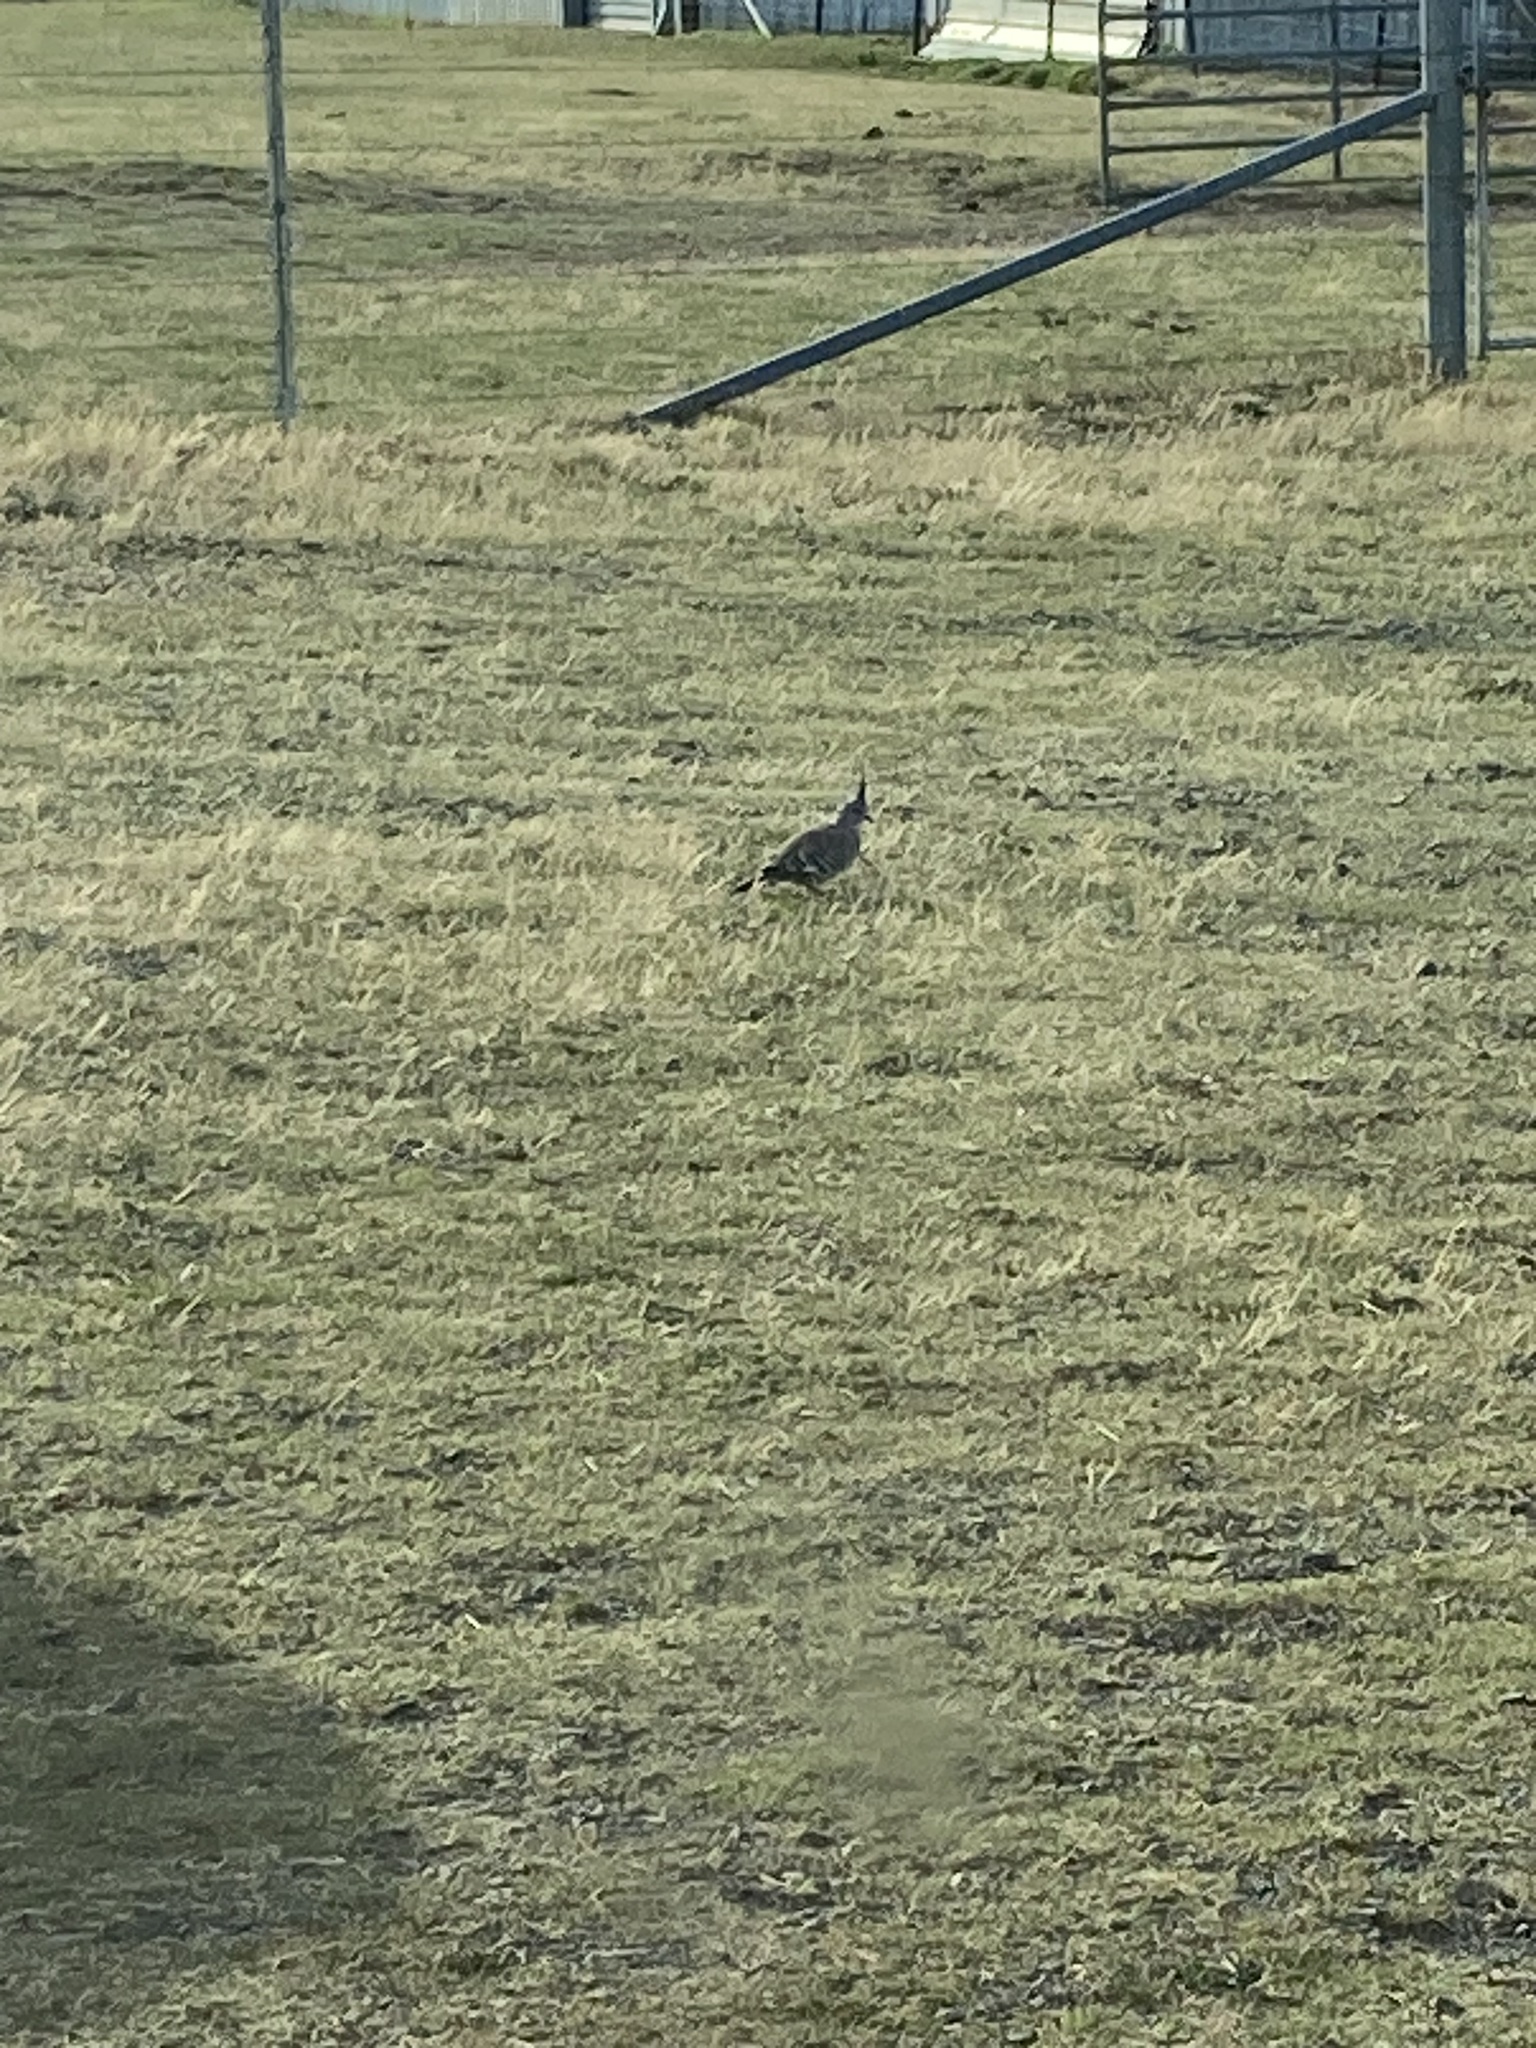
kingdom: Animalia
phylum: Chordata
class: Aves
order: Columbiformes
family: Columbidae
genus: Ocyphaps
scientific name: Ocyphaps lophotes
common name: Crested pigeon
